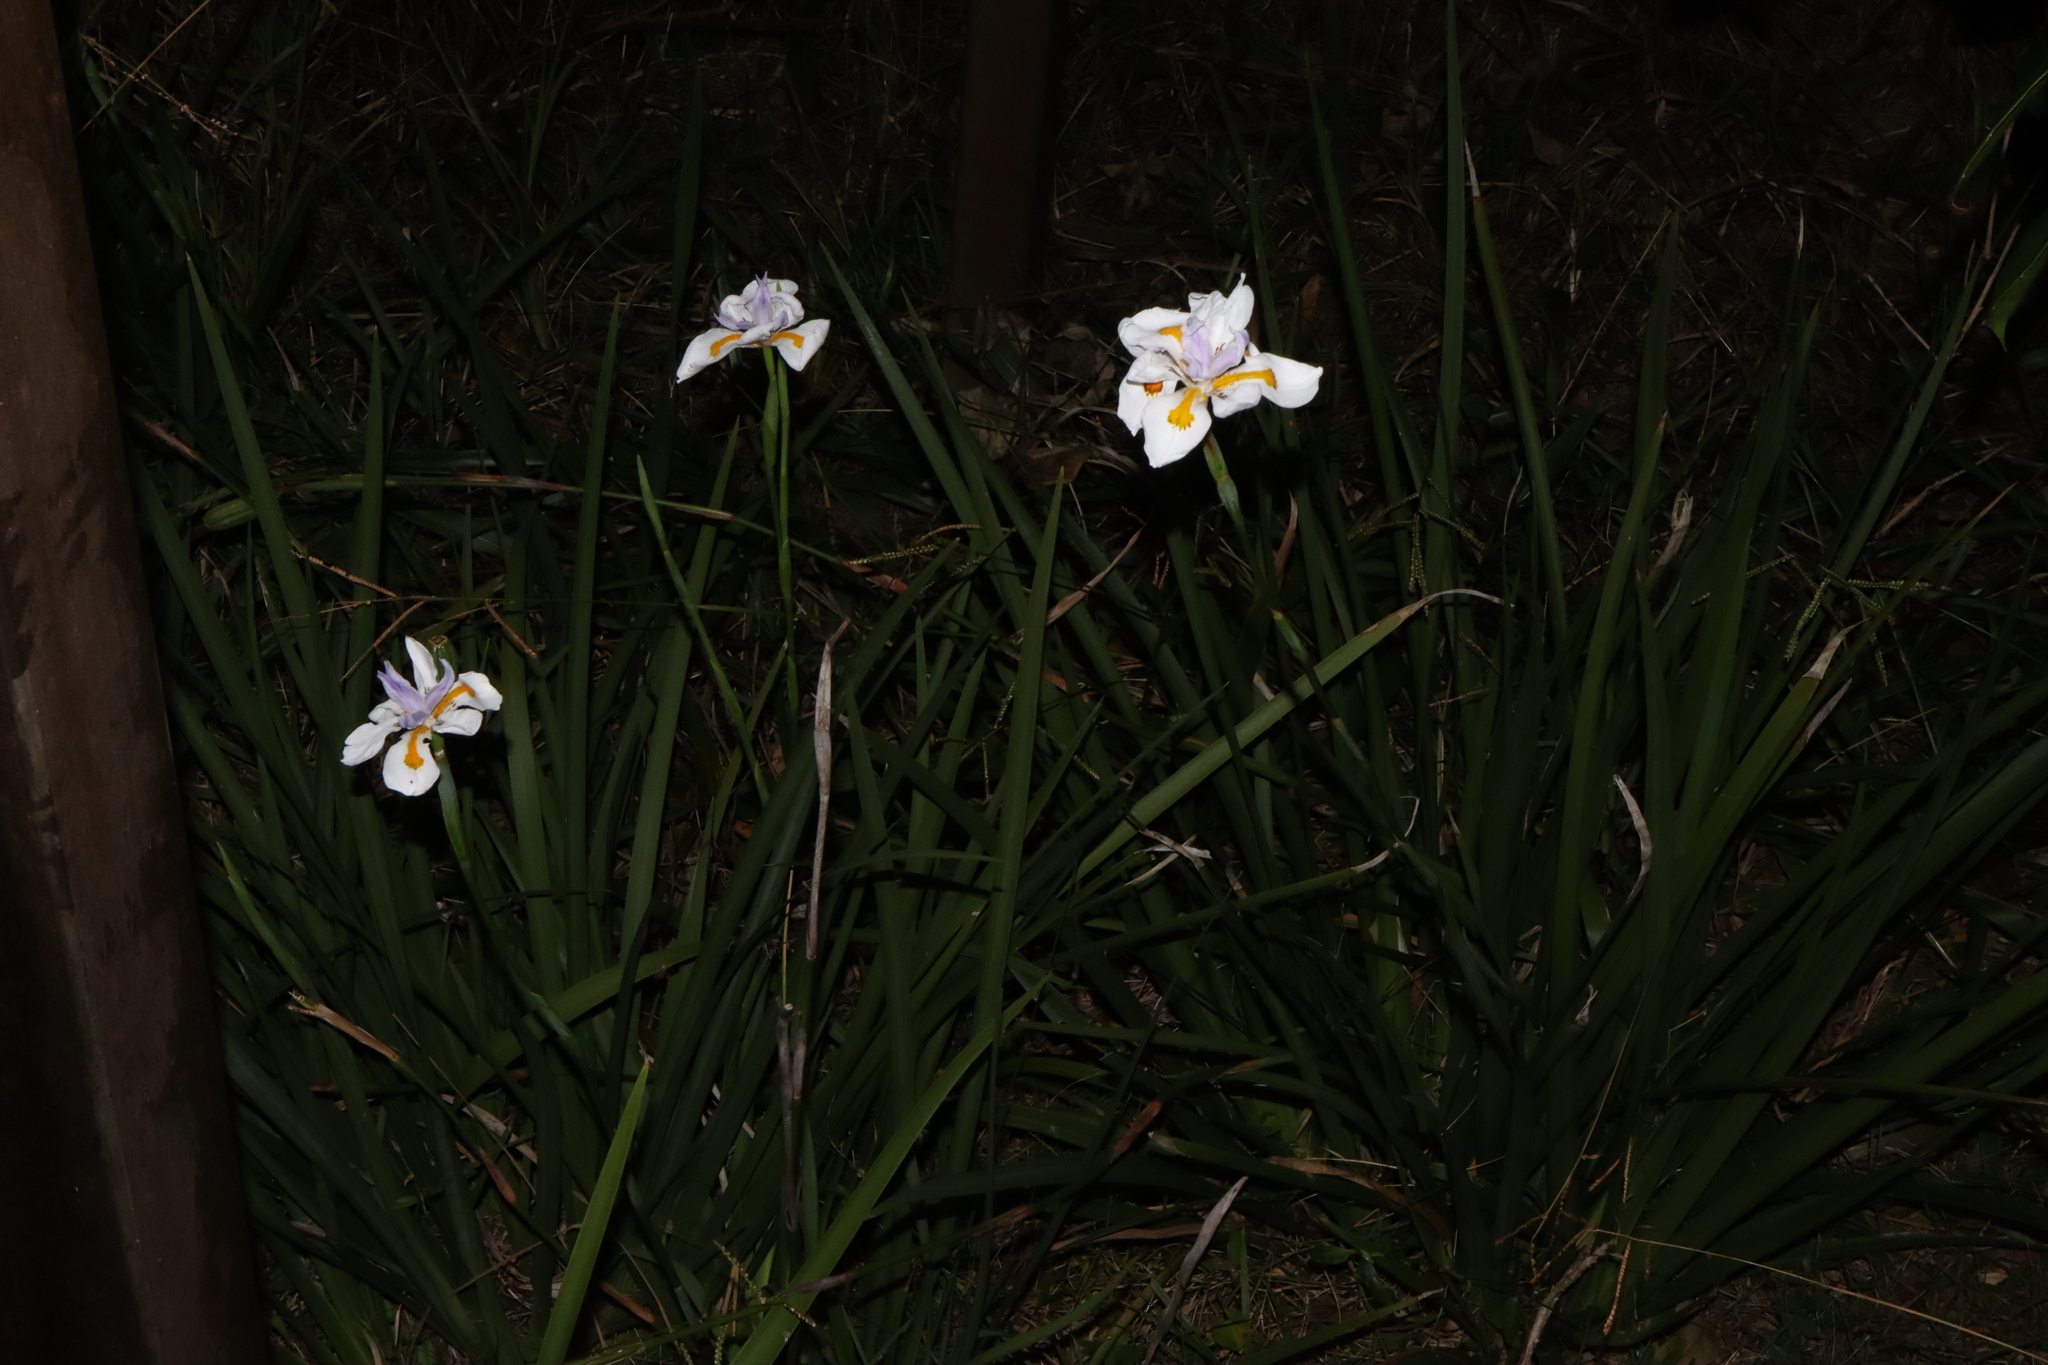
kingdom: Plantae
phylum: Tracheophyta
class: Liliopsida
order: Asparagales
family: Iridaceae
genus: Dietes
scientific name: Dietes grandiflora
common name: Wild iris
